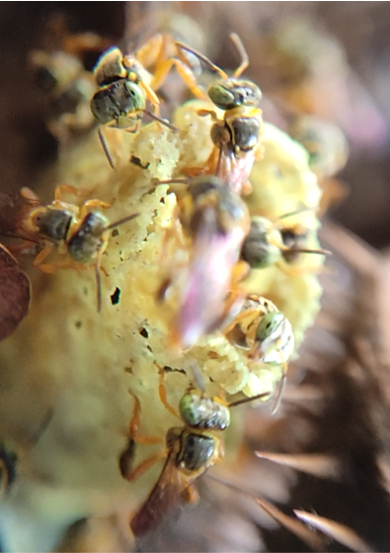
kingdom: Animalia
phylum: Arthropoda
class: Insecta
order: Hymenoptera
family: Apidae
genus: Tetragonisca
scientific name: Tetragonisca angustula
